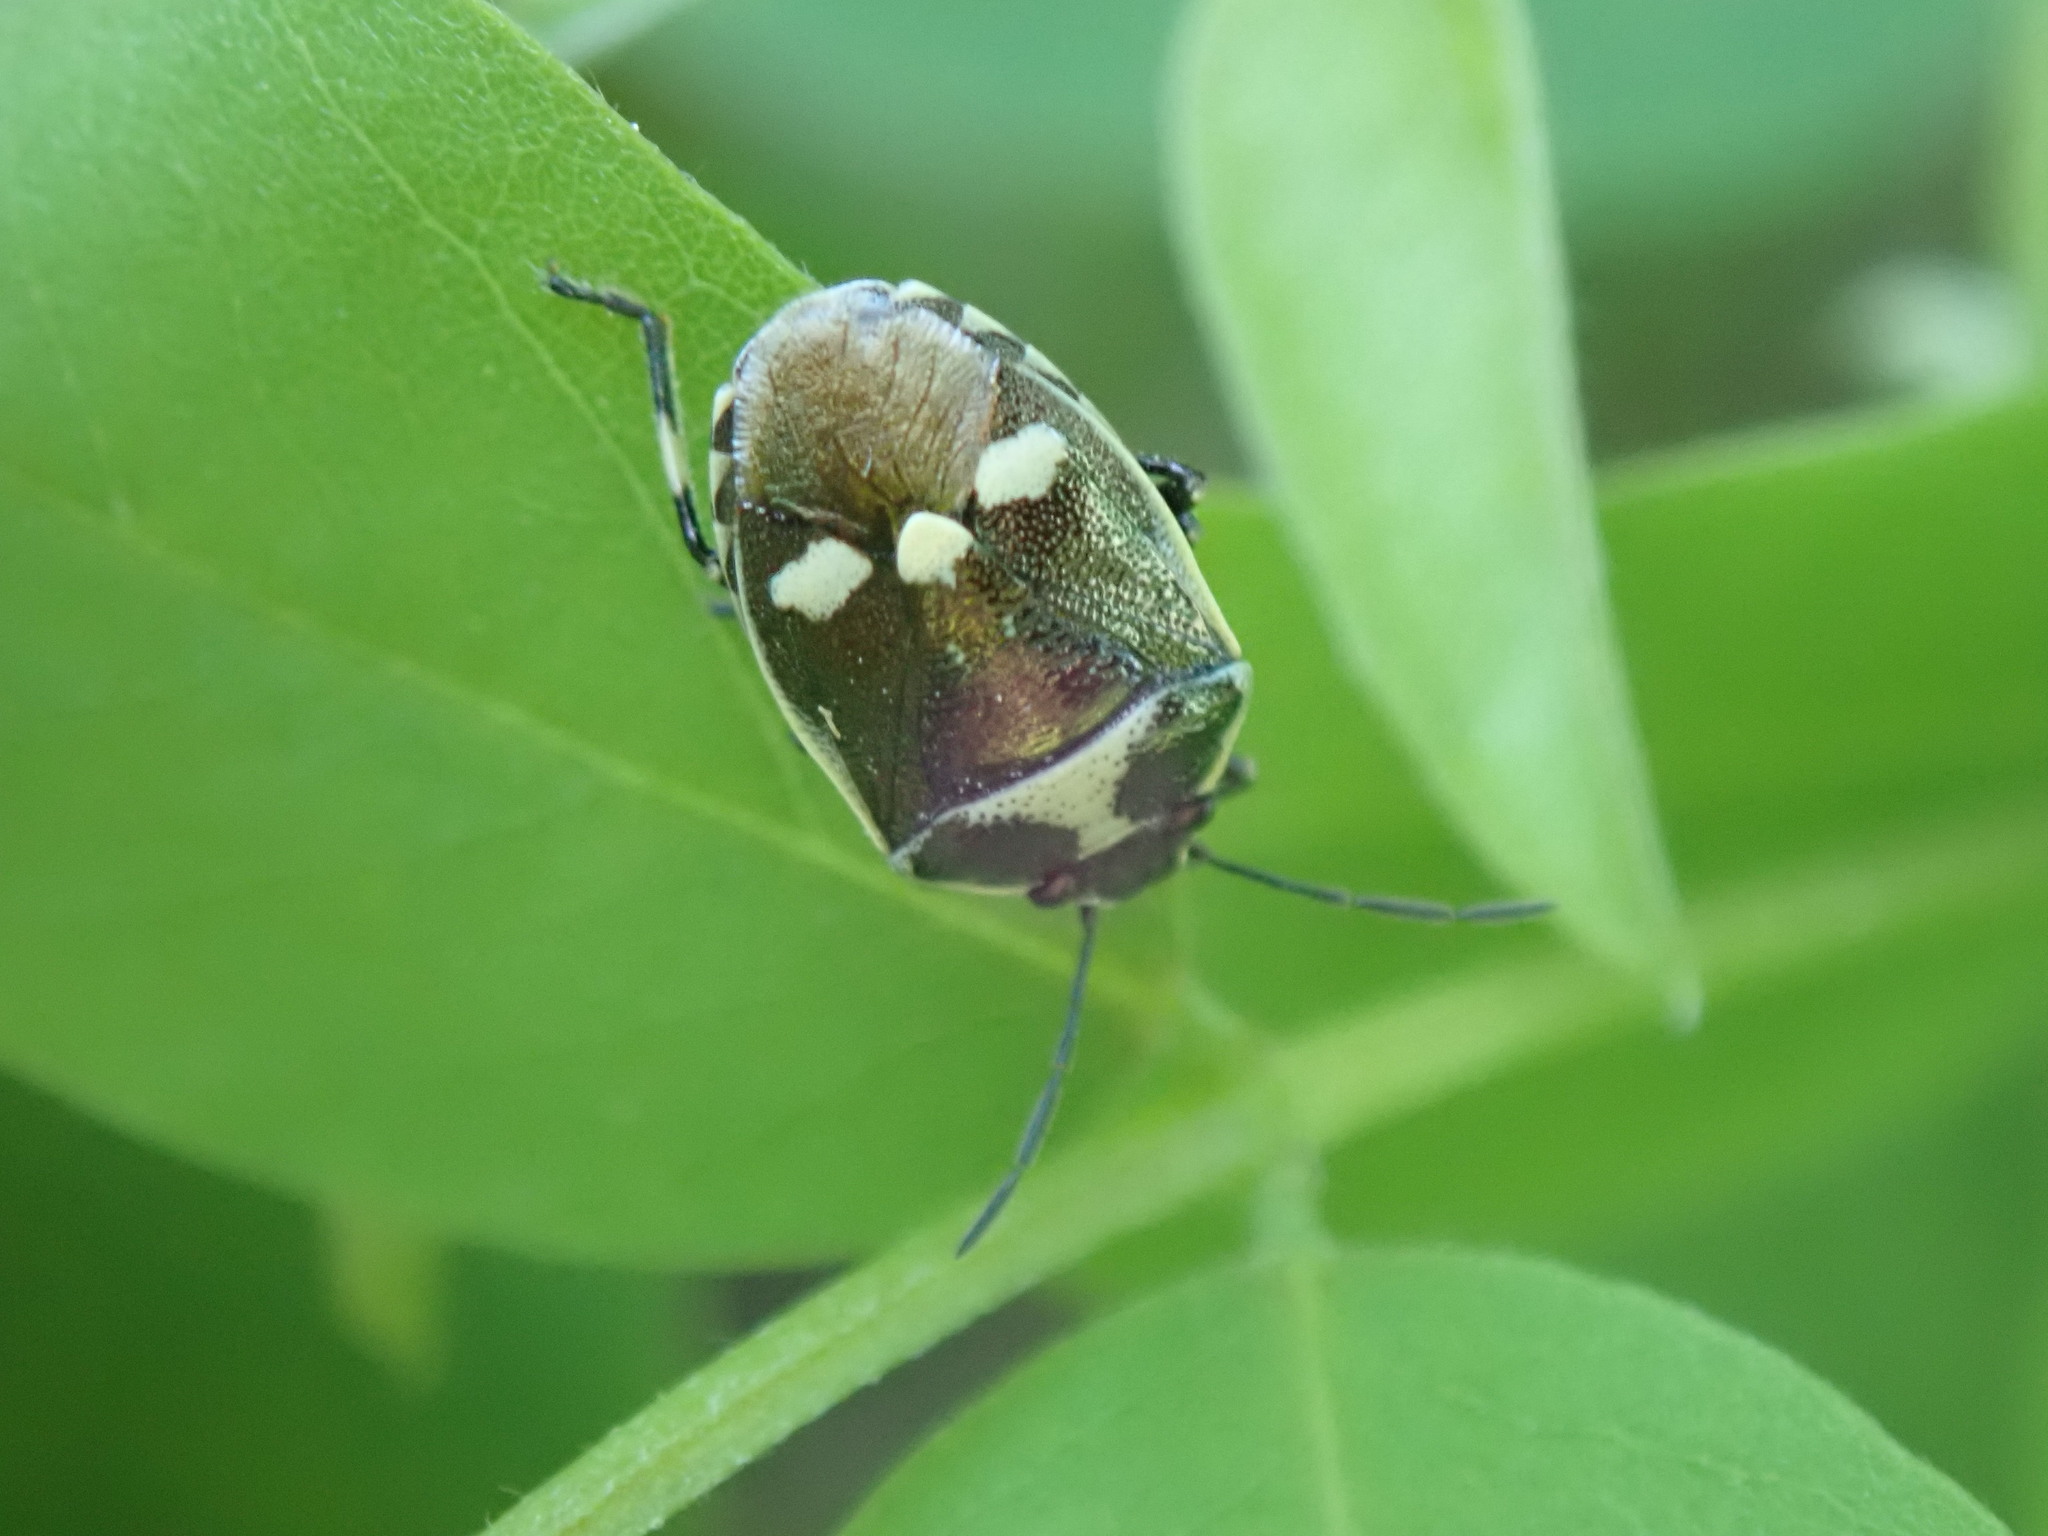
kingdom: Animalia
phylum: Arthropoda
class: Insecta
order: Hemiptera
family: Pentatomidae
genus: Eurydema
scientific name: Eurydema oleracea
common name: Cabbage bug
